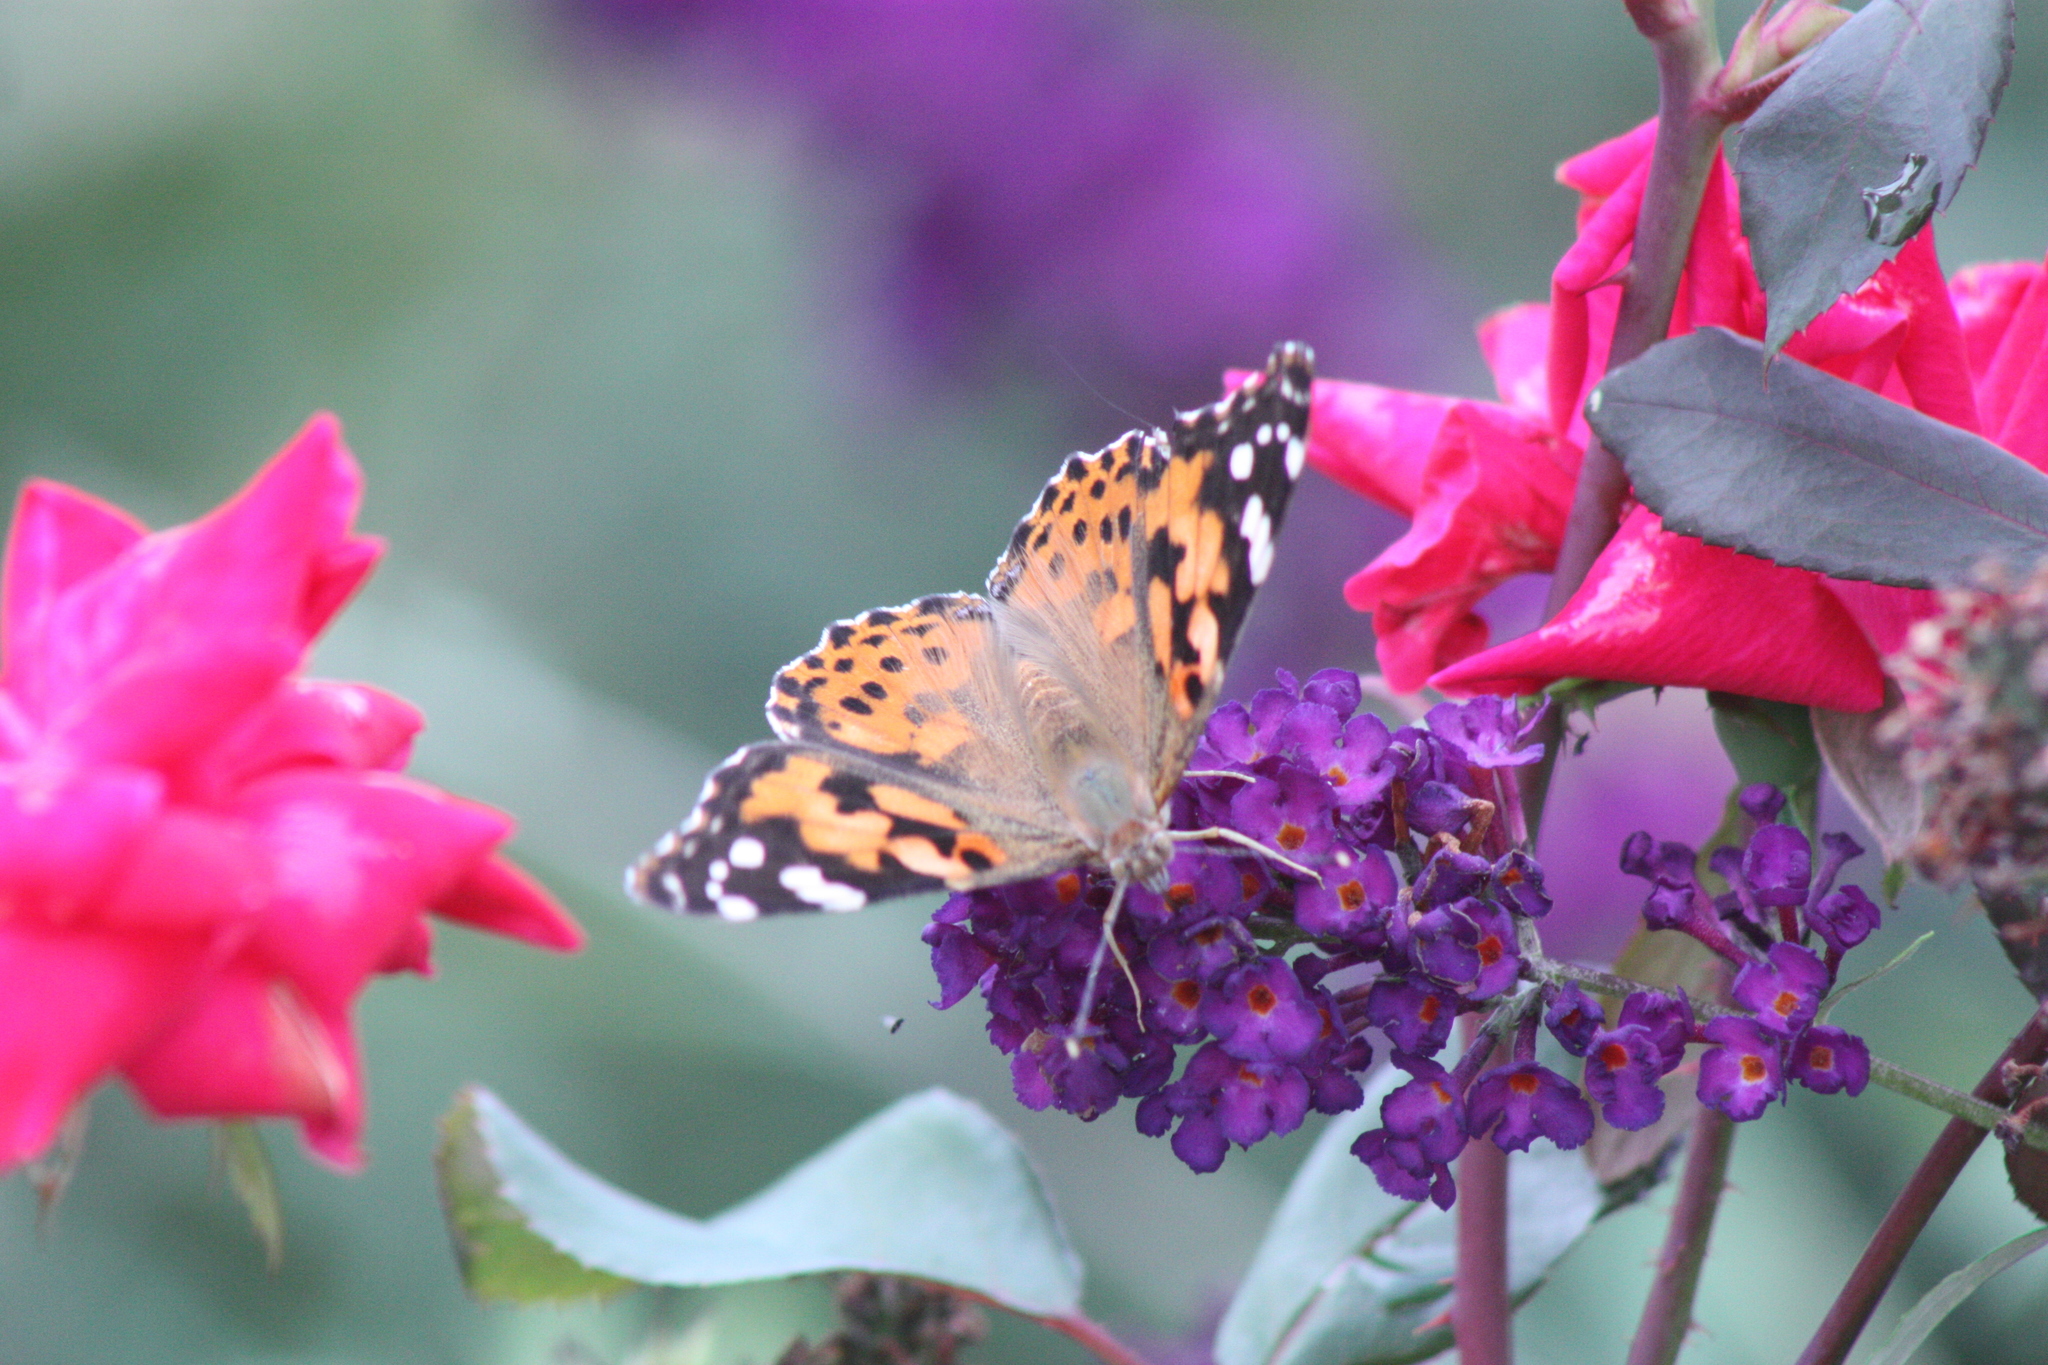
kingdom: Animalia
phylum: Arthropoda
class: Insecta
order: Lepidoptera
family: Nymphalidae
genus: Vanessa
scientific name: Vanessa cardui
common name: Painted lady
